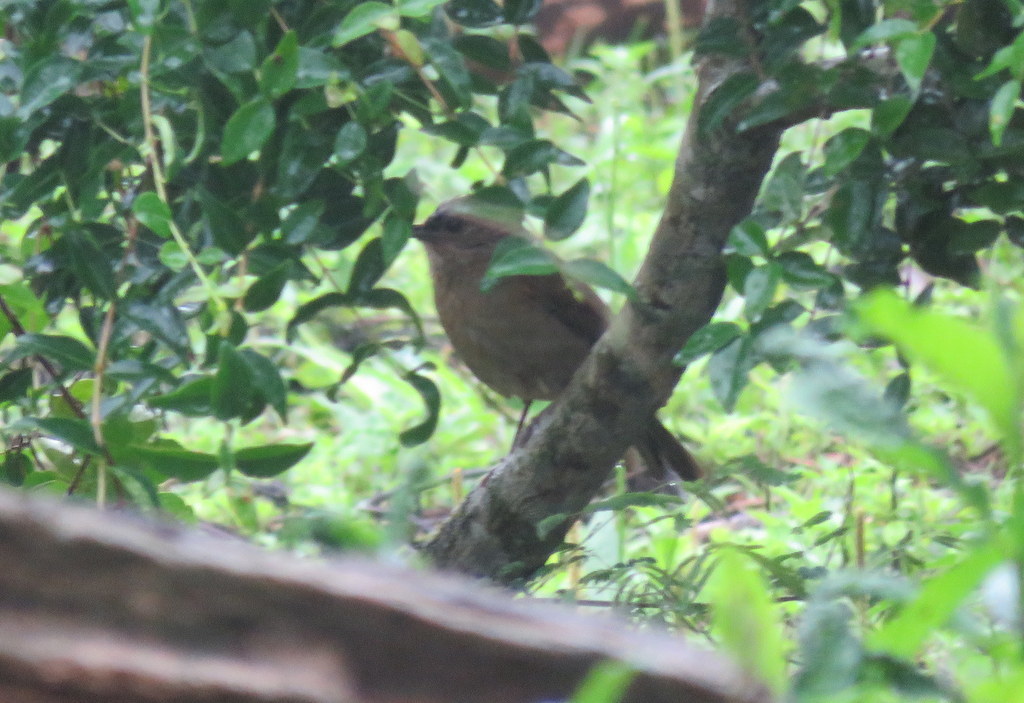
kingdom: Animalia
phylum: Chordata
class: Aves
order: Passeriformes
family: Turdidae
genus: Turdus
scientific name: Turdus leucomelas
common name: Pale-breasted thrush
